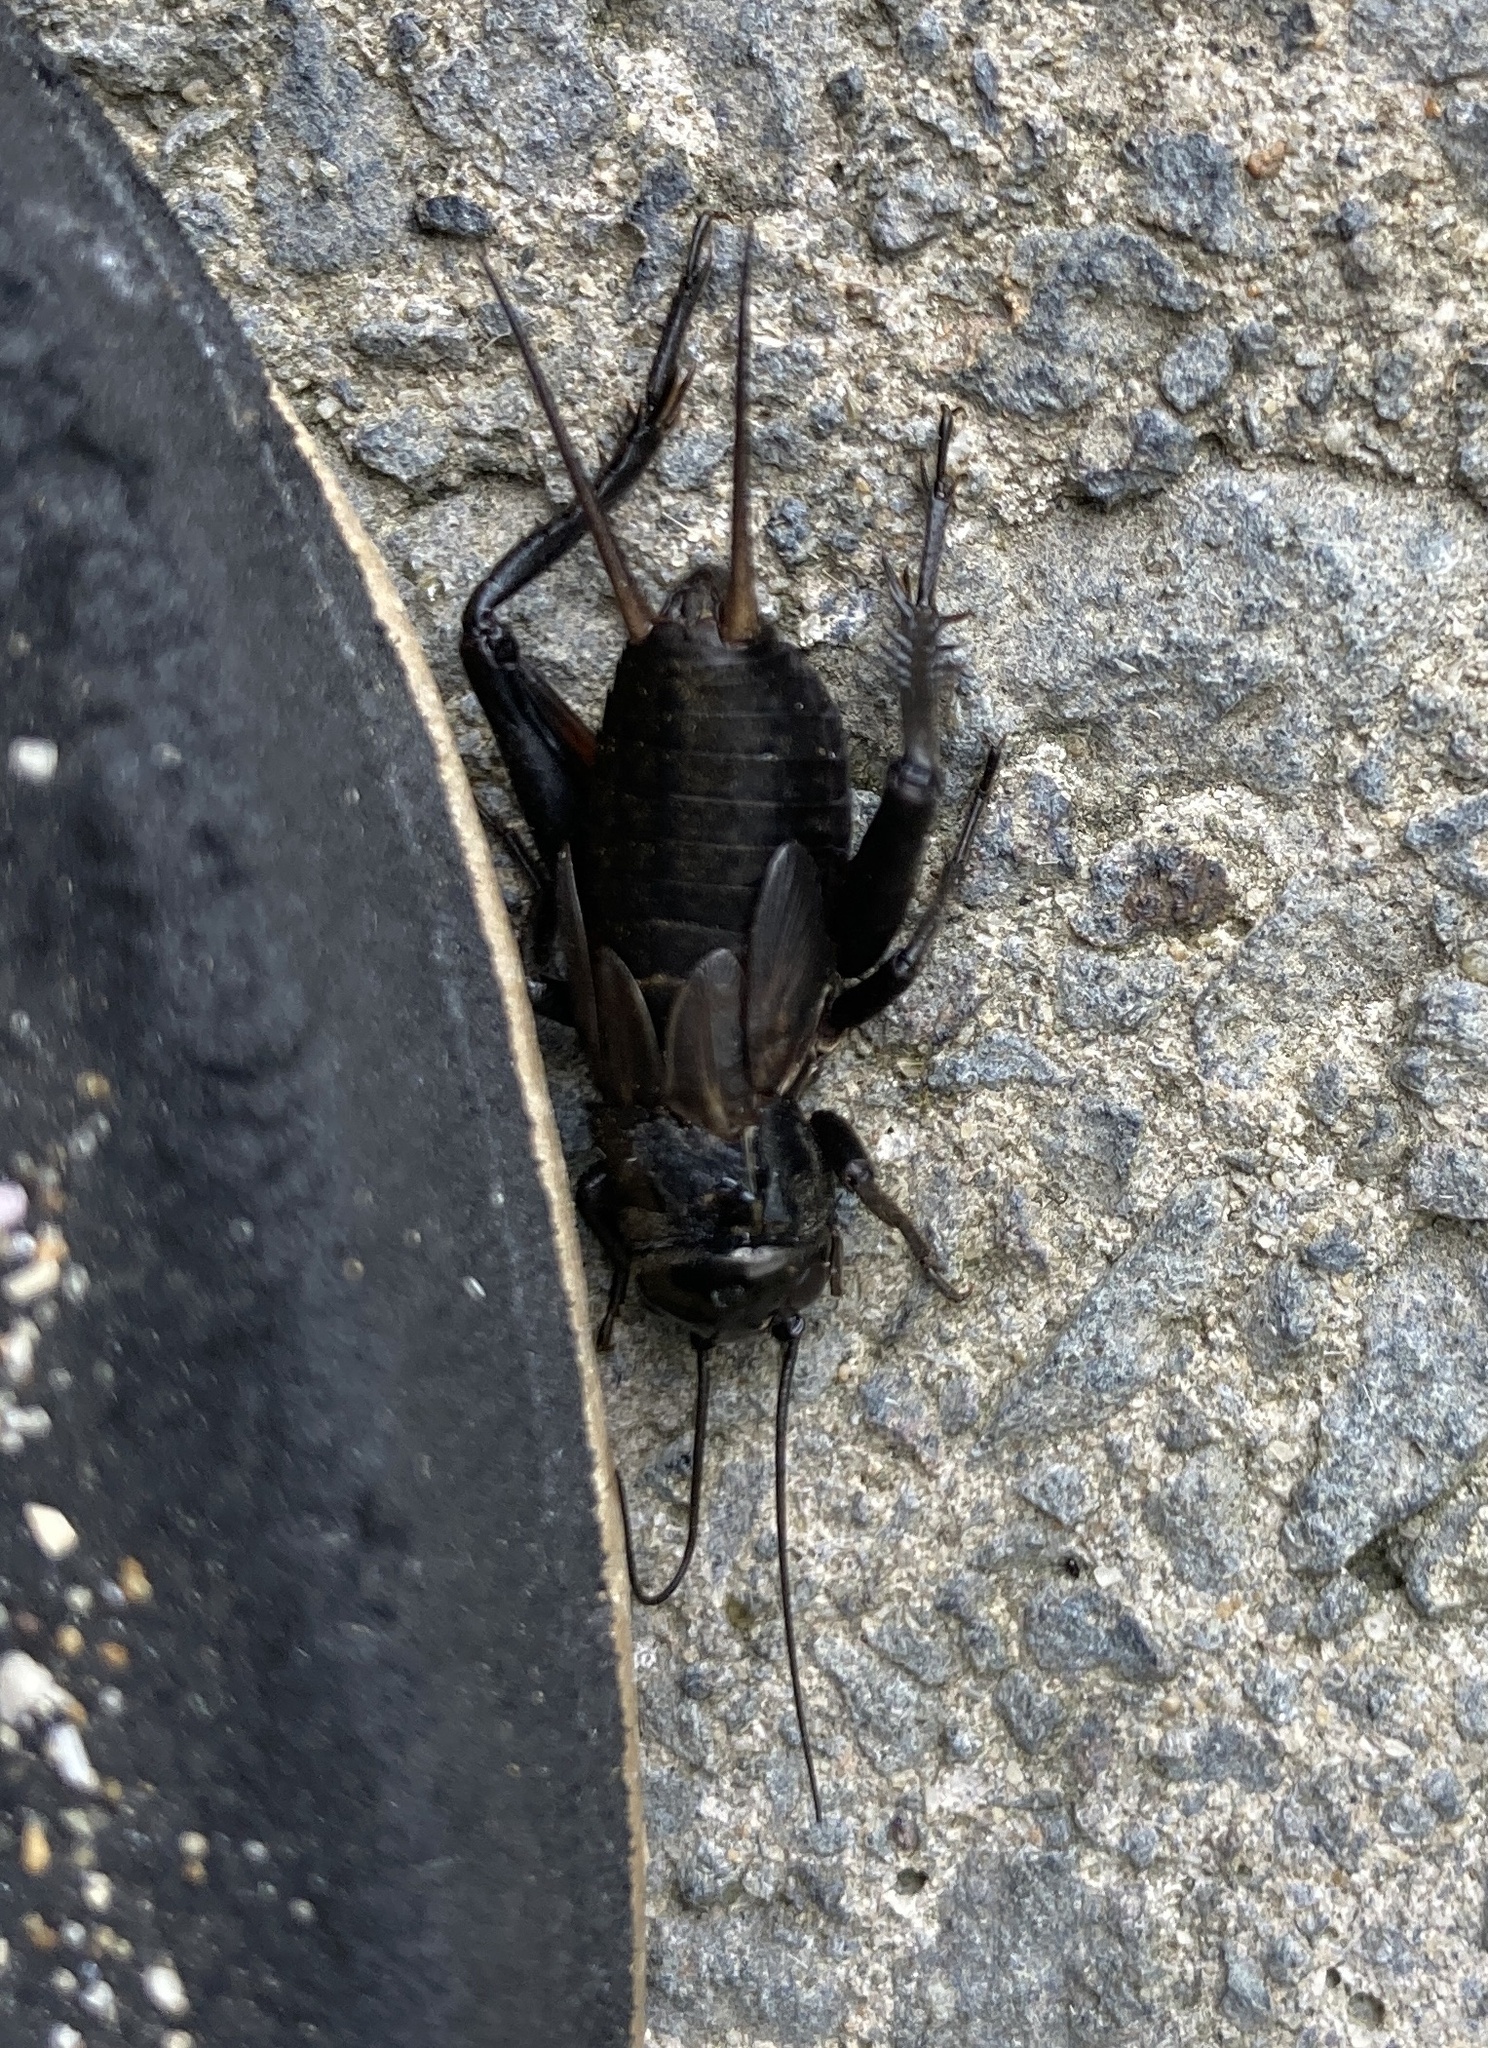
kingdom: Animalia
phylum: Arthropoda
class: Insecta
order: Orthoptera
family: Gryllidae
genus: Teleogryllus
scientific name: Teleogryllus commodus
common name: Black field cricket
